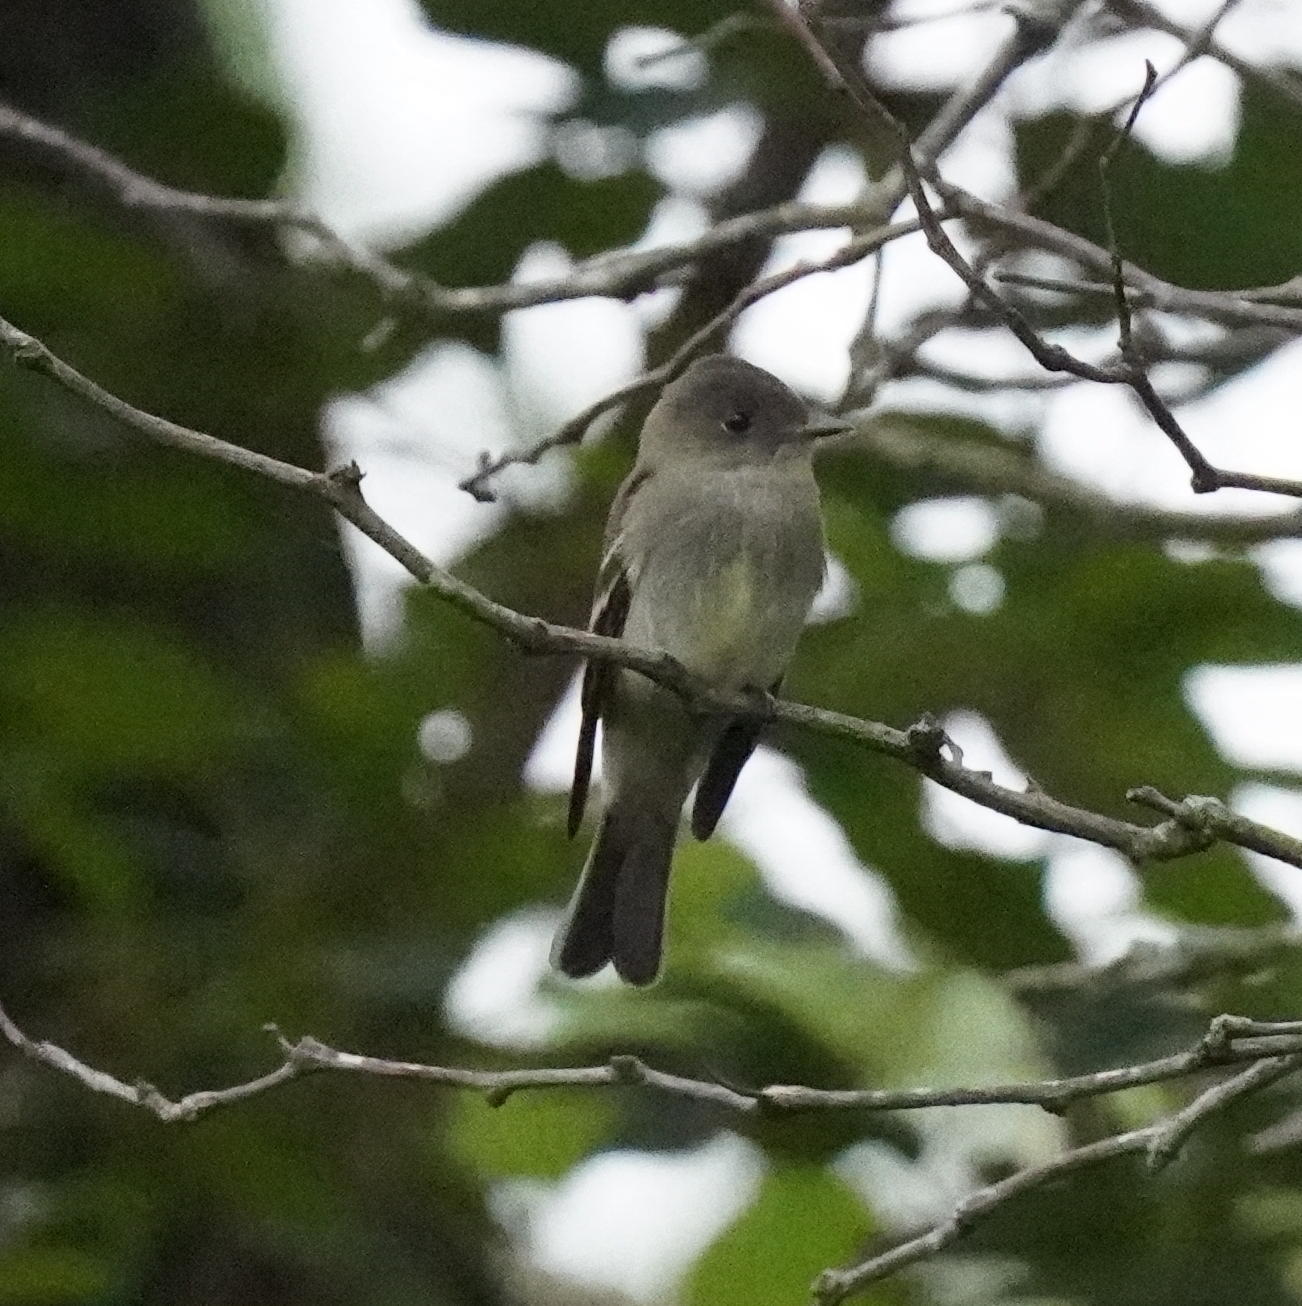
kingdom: Animalia
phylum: Chordata
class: Aves
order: Passeriformes
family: Tyrannidae
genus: Contopus
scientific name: Contopus virens
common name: Eastern wood-pewee
